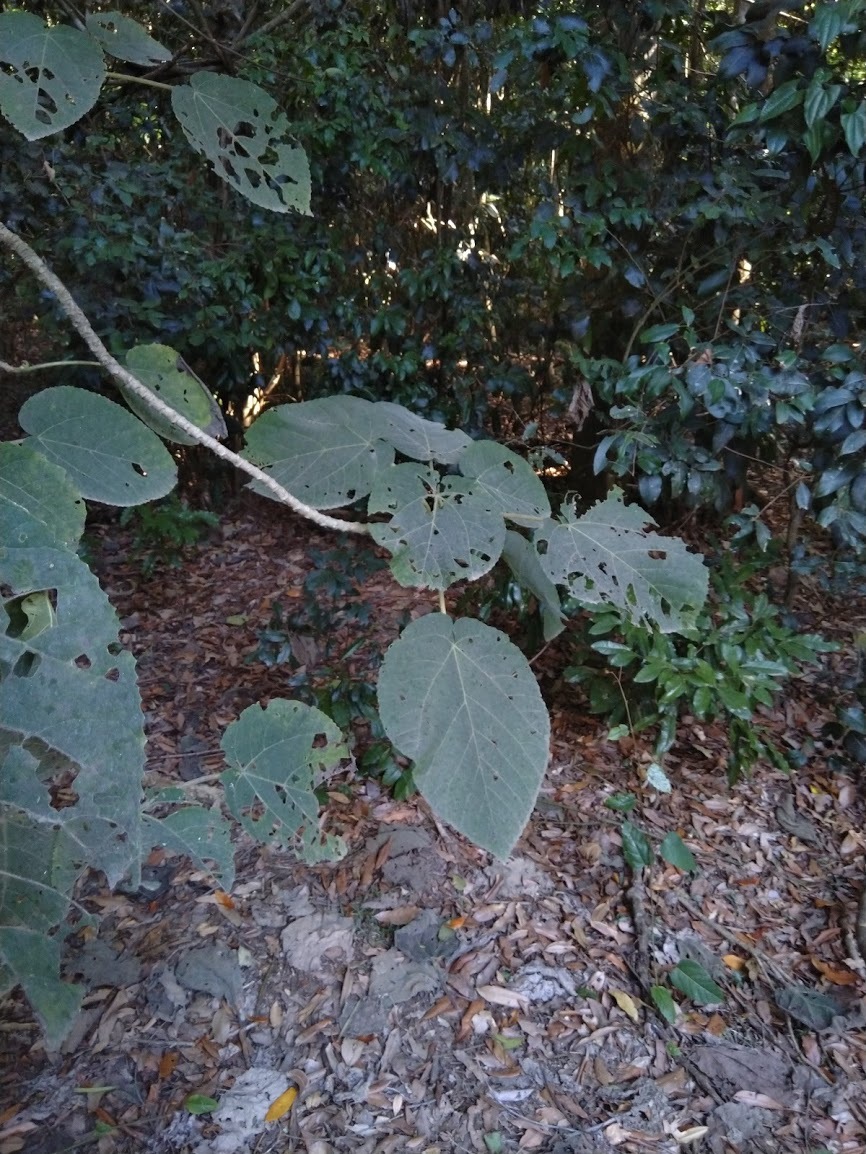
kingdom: Plantae
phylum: Tracheophyta
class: Magnoliopsida
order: Rosales
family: Urticaceae
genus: Dendrocnide
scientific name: Dendrocnide excelsa
